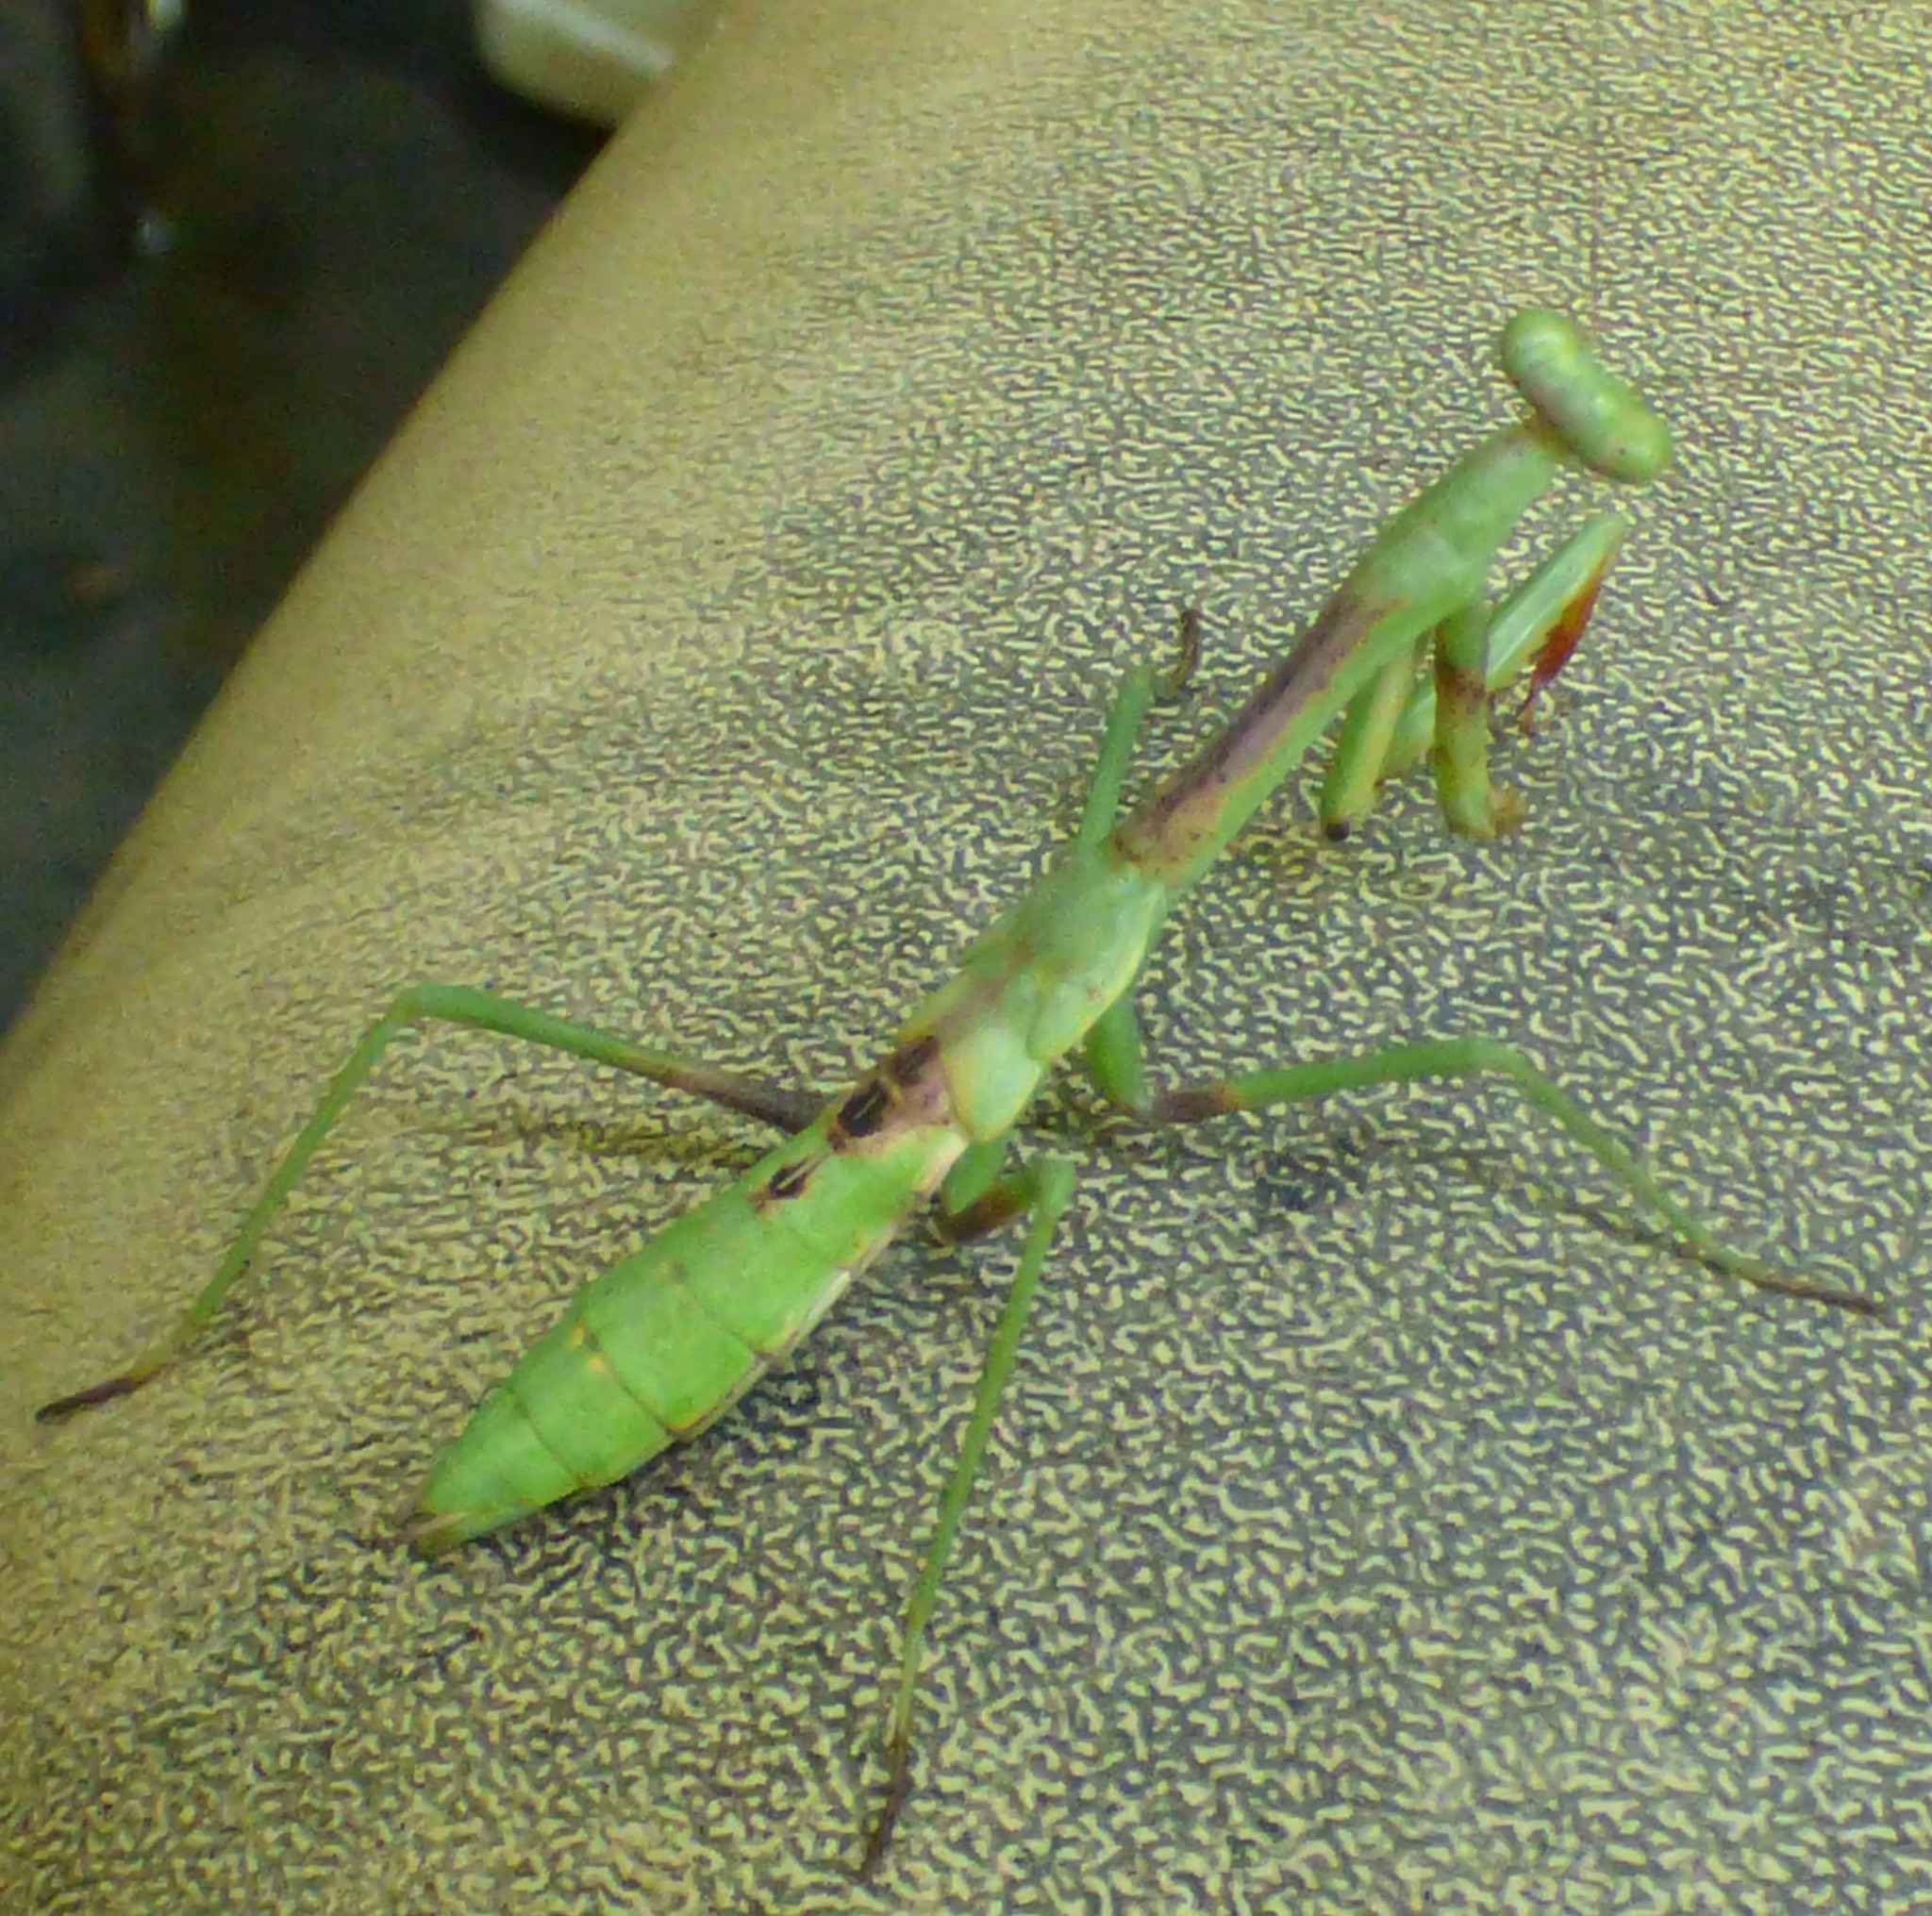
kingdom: Animalia
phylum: Arthropoda
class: Insecta
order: Mantodea
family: Mantidae
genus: Stagmomantis
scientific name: Stagmomantis carolina
